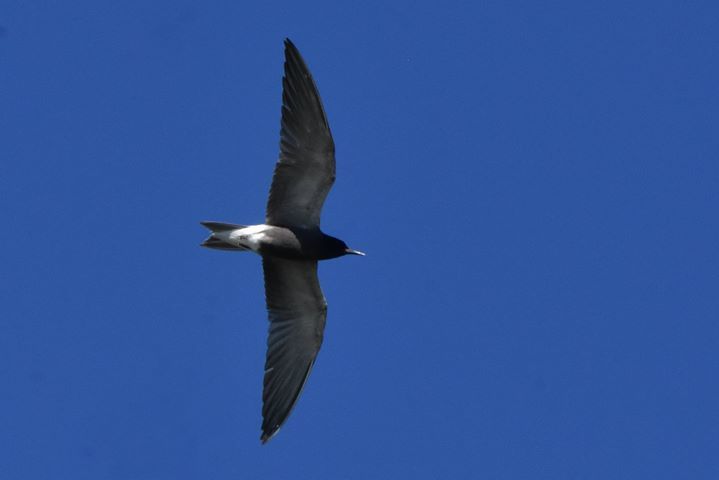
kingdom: Animalia
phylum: Chordata
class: Aves
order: Charadriiformes
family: Laridae
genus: Chlidonias
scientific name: Chlidonias niger
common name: Black tern
